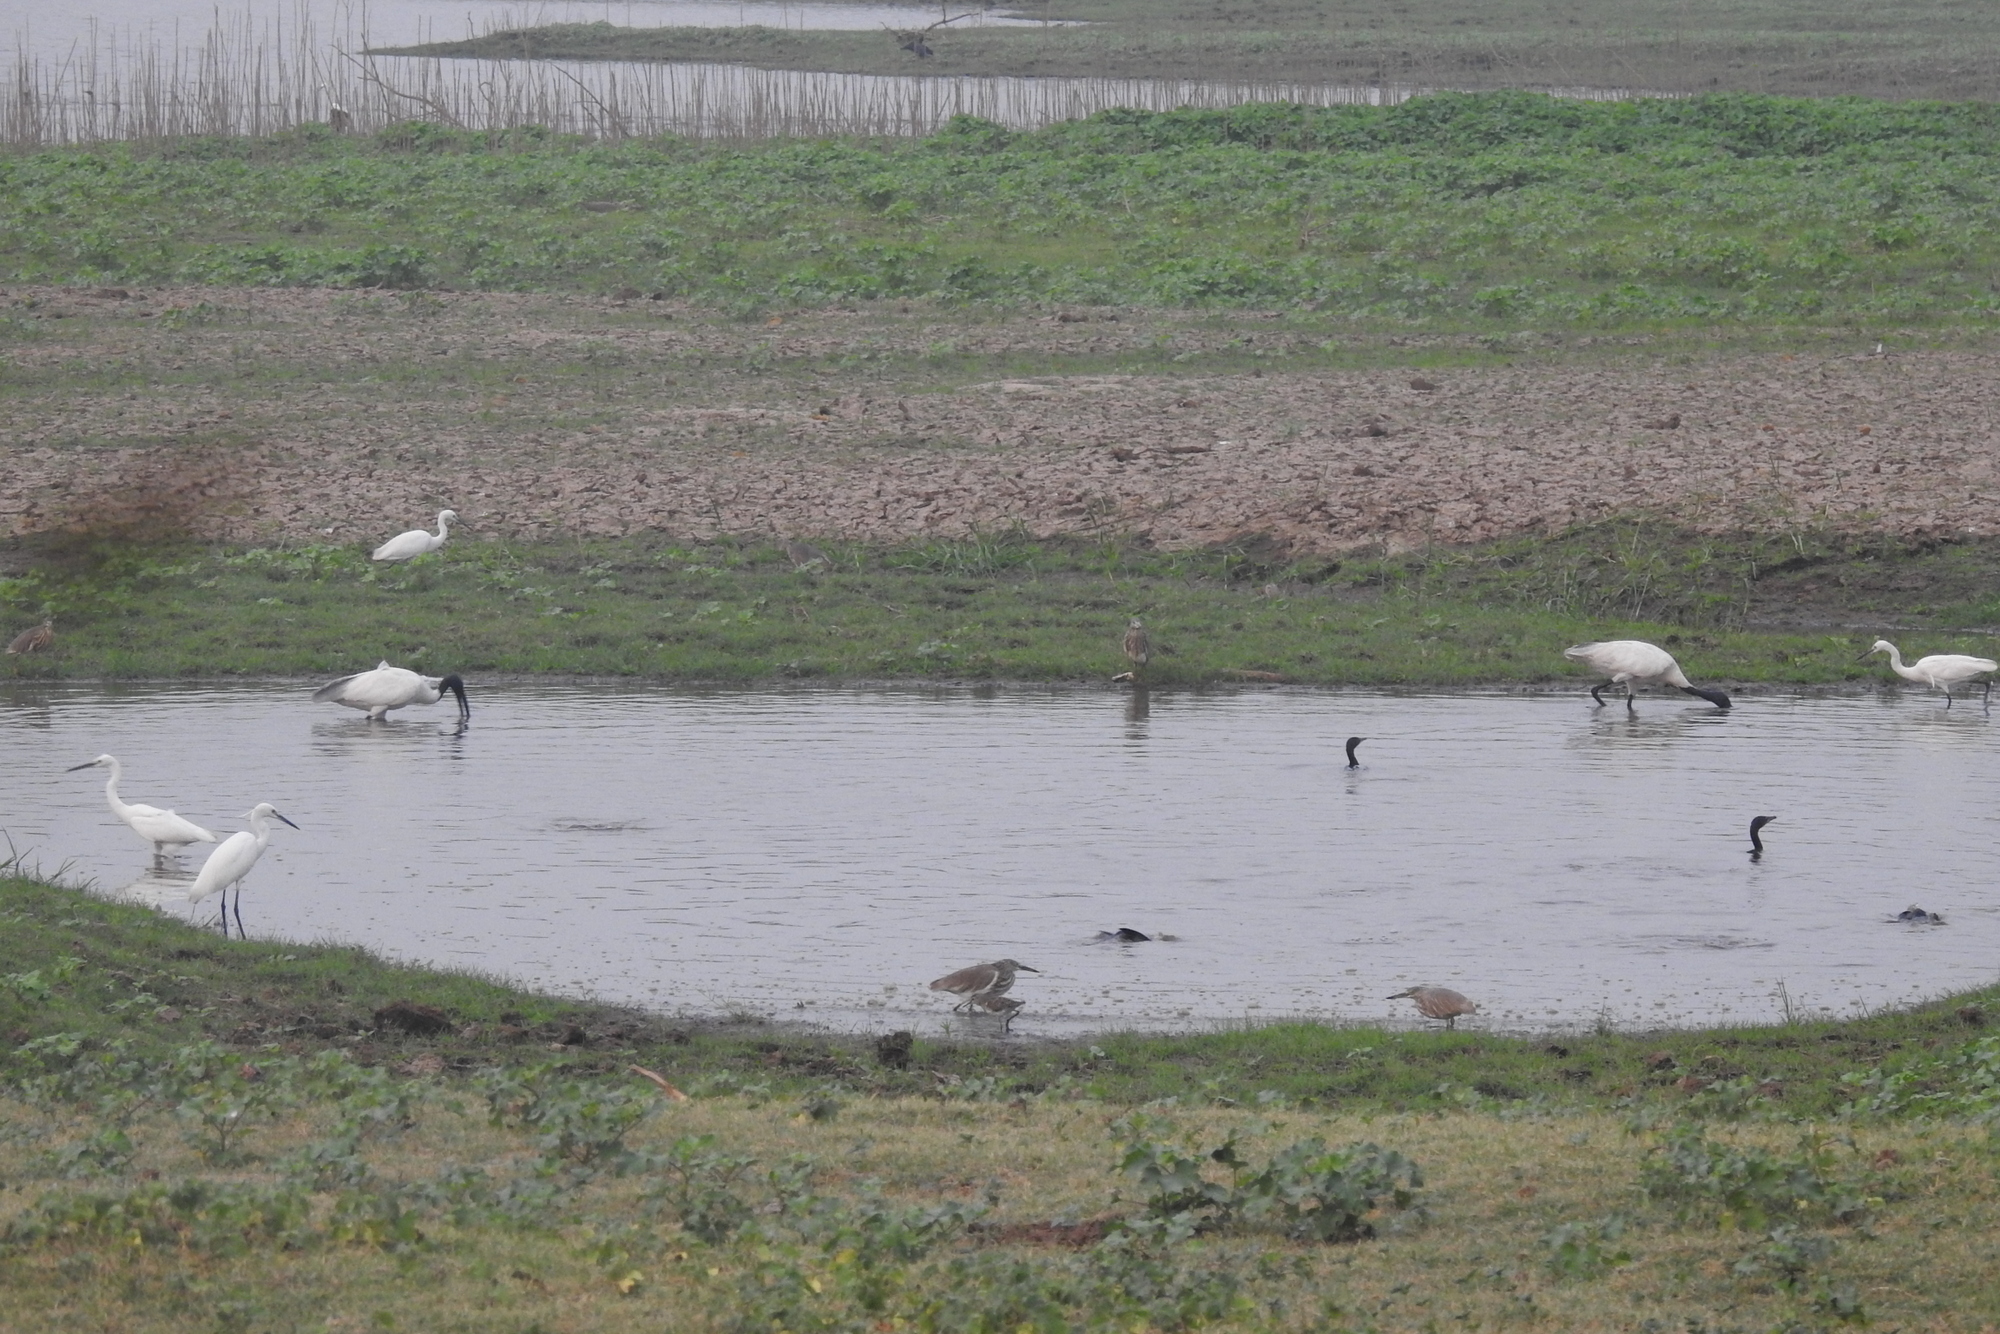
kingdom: Animalia
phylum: Chordata
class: Aves
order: Pelecaniformes
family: Threskiornithidae
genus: Threskiornis
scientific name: Threskiornis melanocephalus
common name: Black-headed ibis
